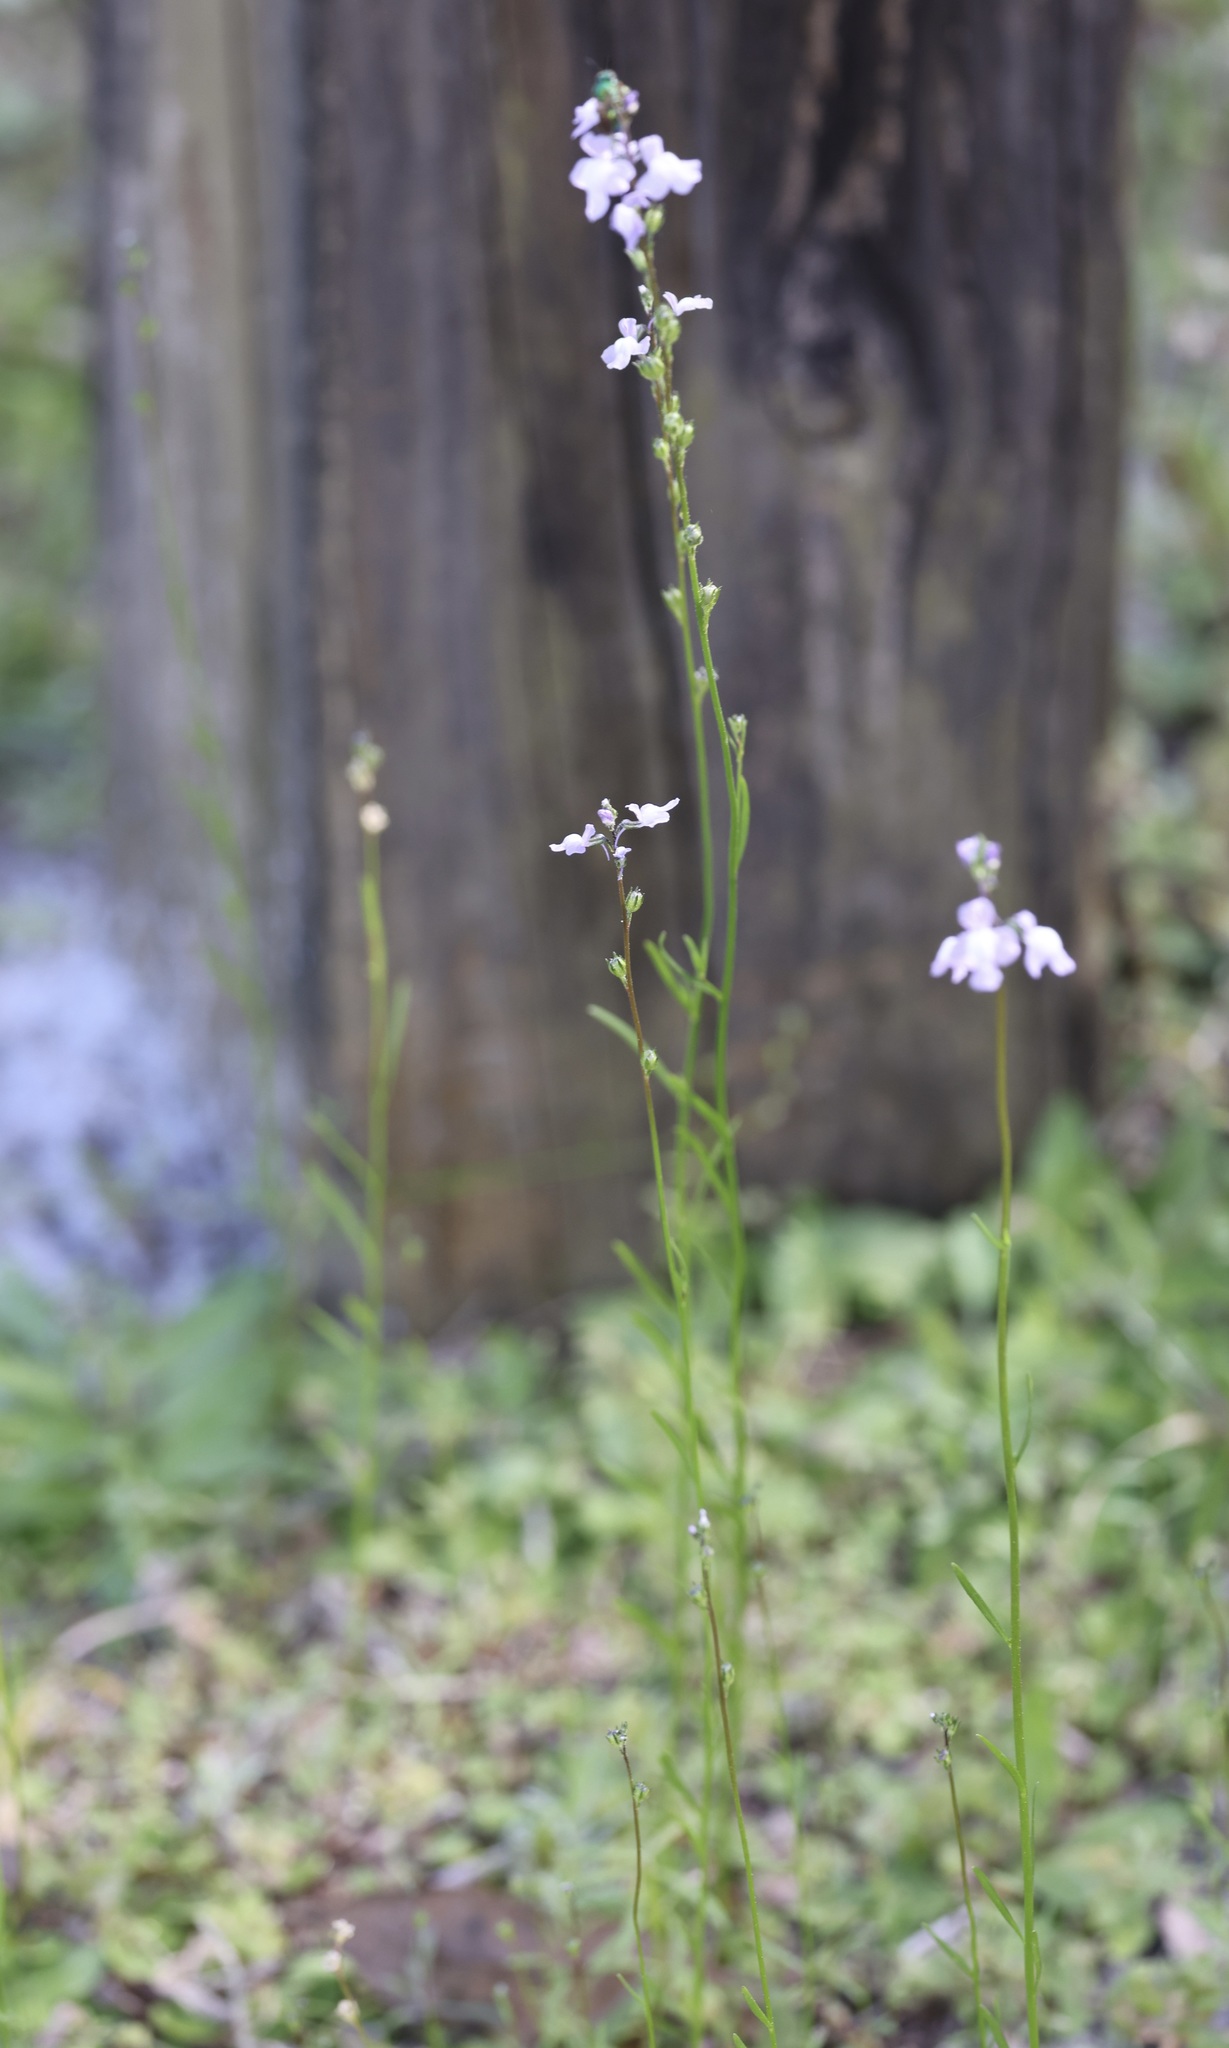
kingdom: Plantae
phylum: Tracheophyta
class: Magnoliopsida
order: Lamiales
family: Plantaginaceae
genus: Nuttallanthus
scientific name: Nuttallanthus canadensis
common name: Blue toadflax
